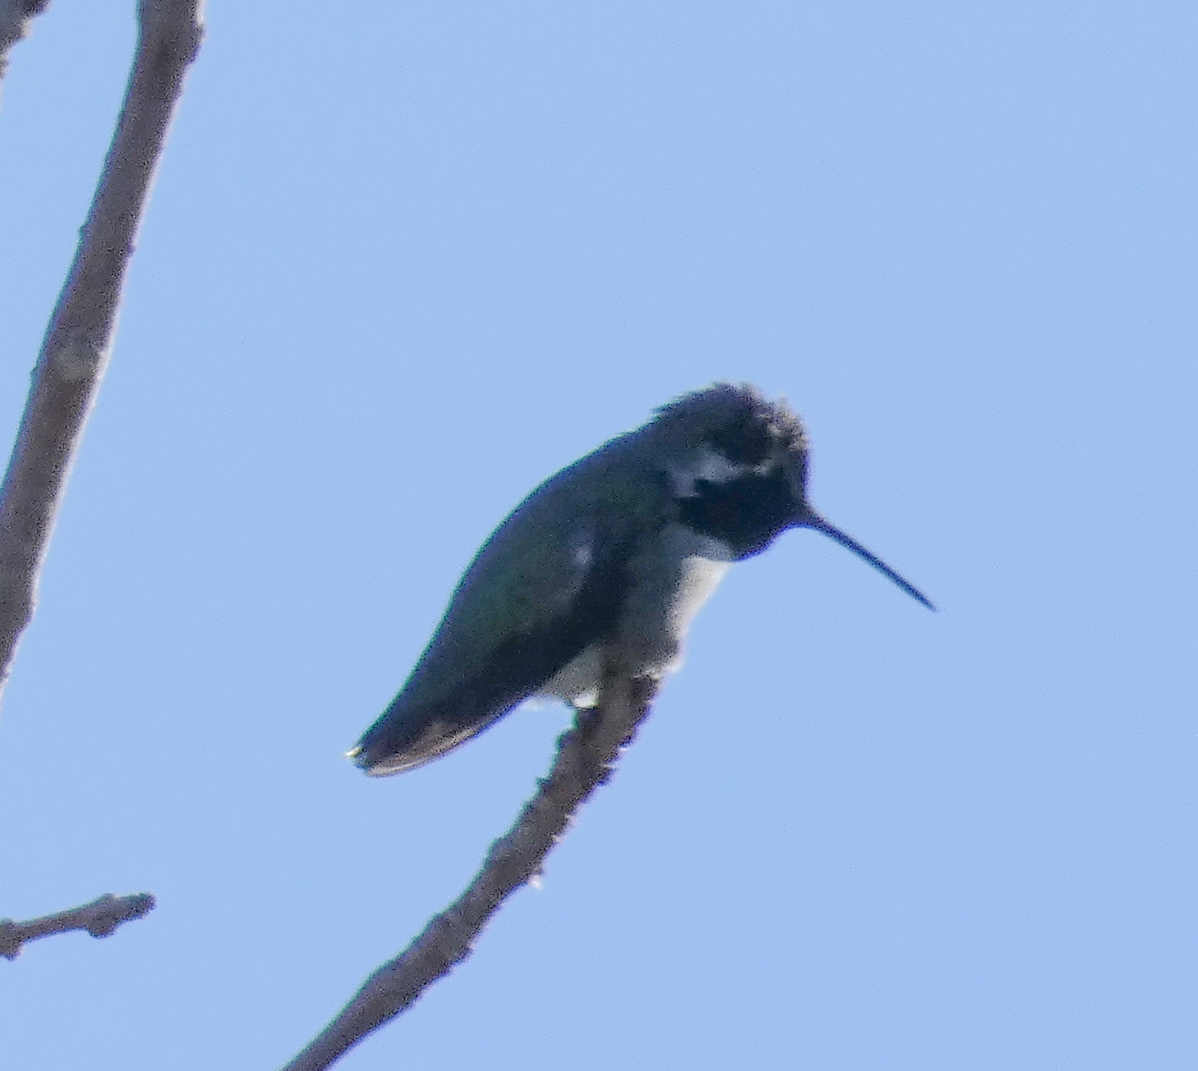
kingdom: Animalia
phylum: Chordata
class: Aves
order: Apodiformes
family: Trochilidae
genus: Calypte
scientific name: Calypte costae
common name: Costa's hummingbird
